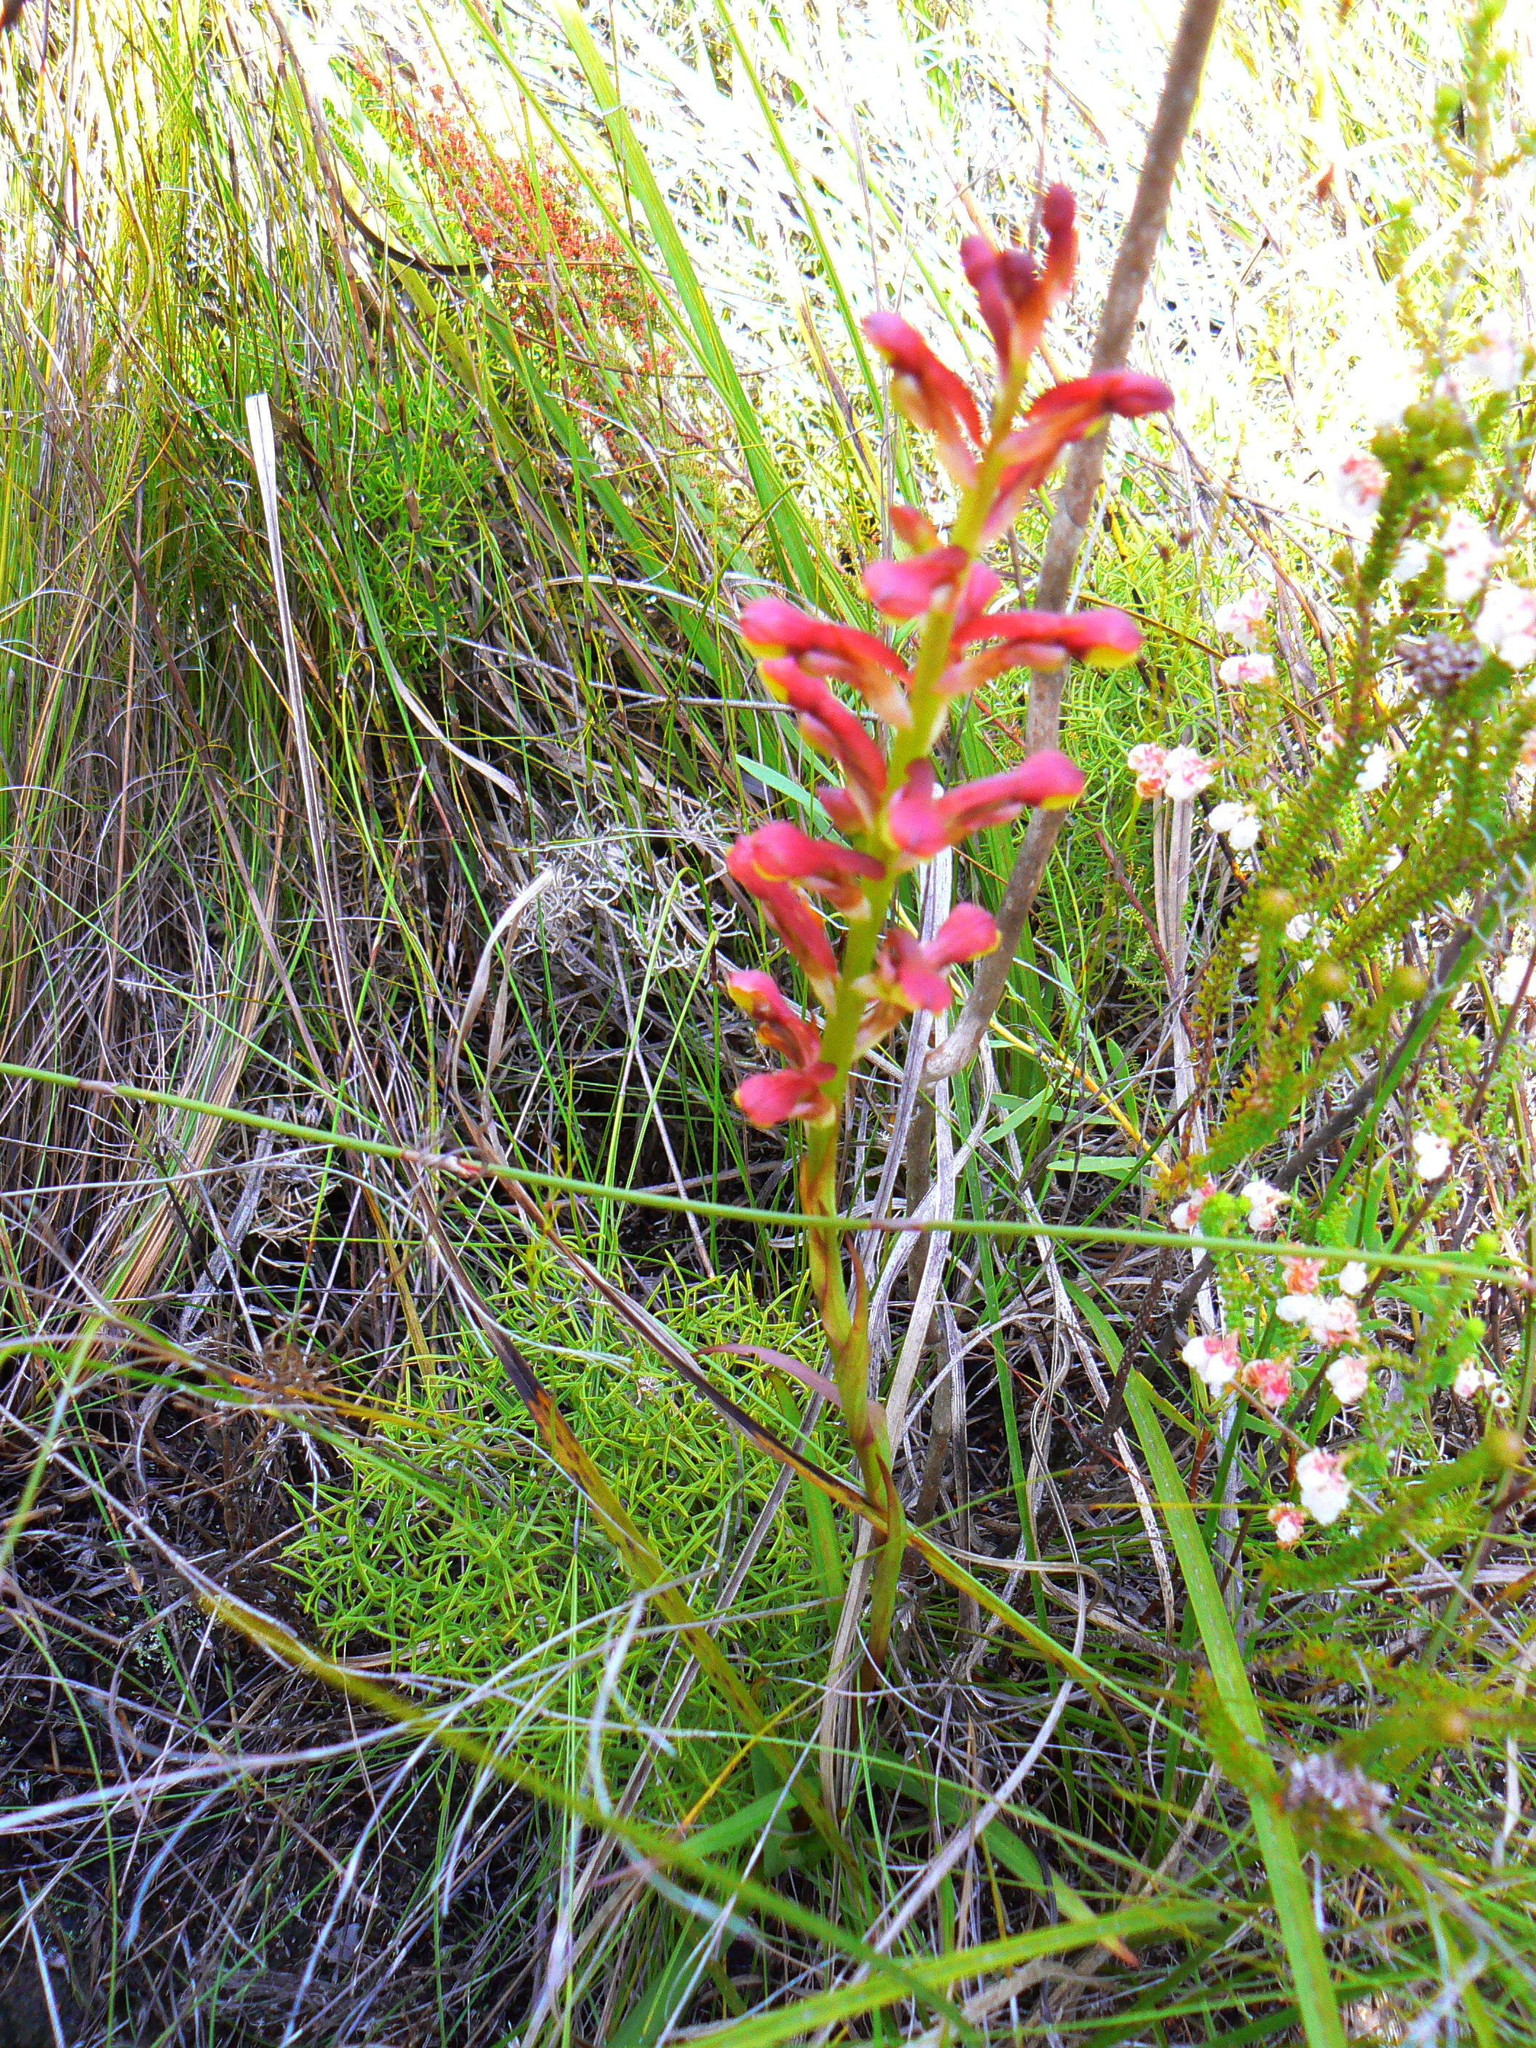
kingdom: Plantae
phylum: Tracheophyta
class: Liliopsida
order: Asparagales
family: Orchidaceae
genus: Disa
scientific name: Disa brevicornis
